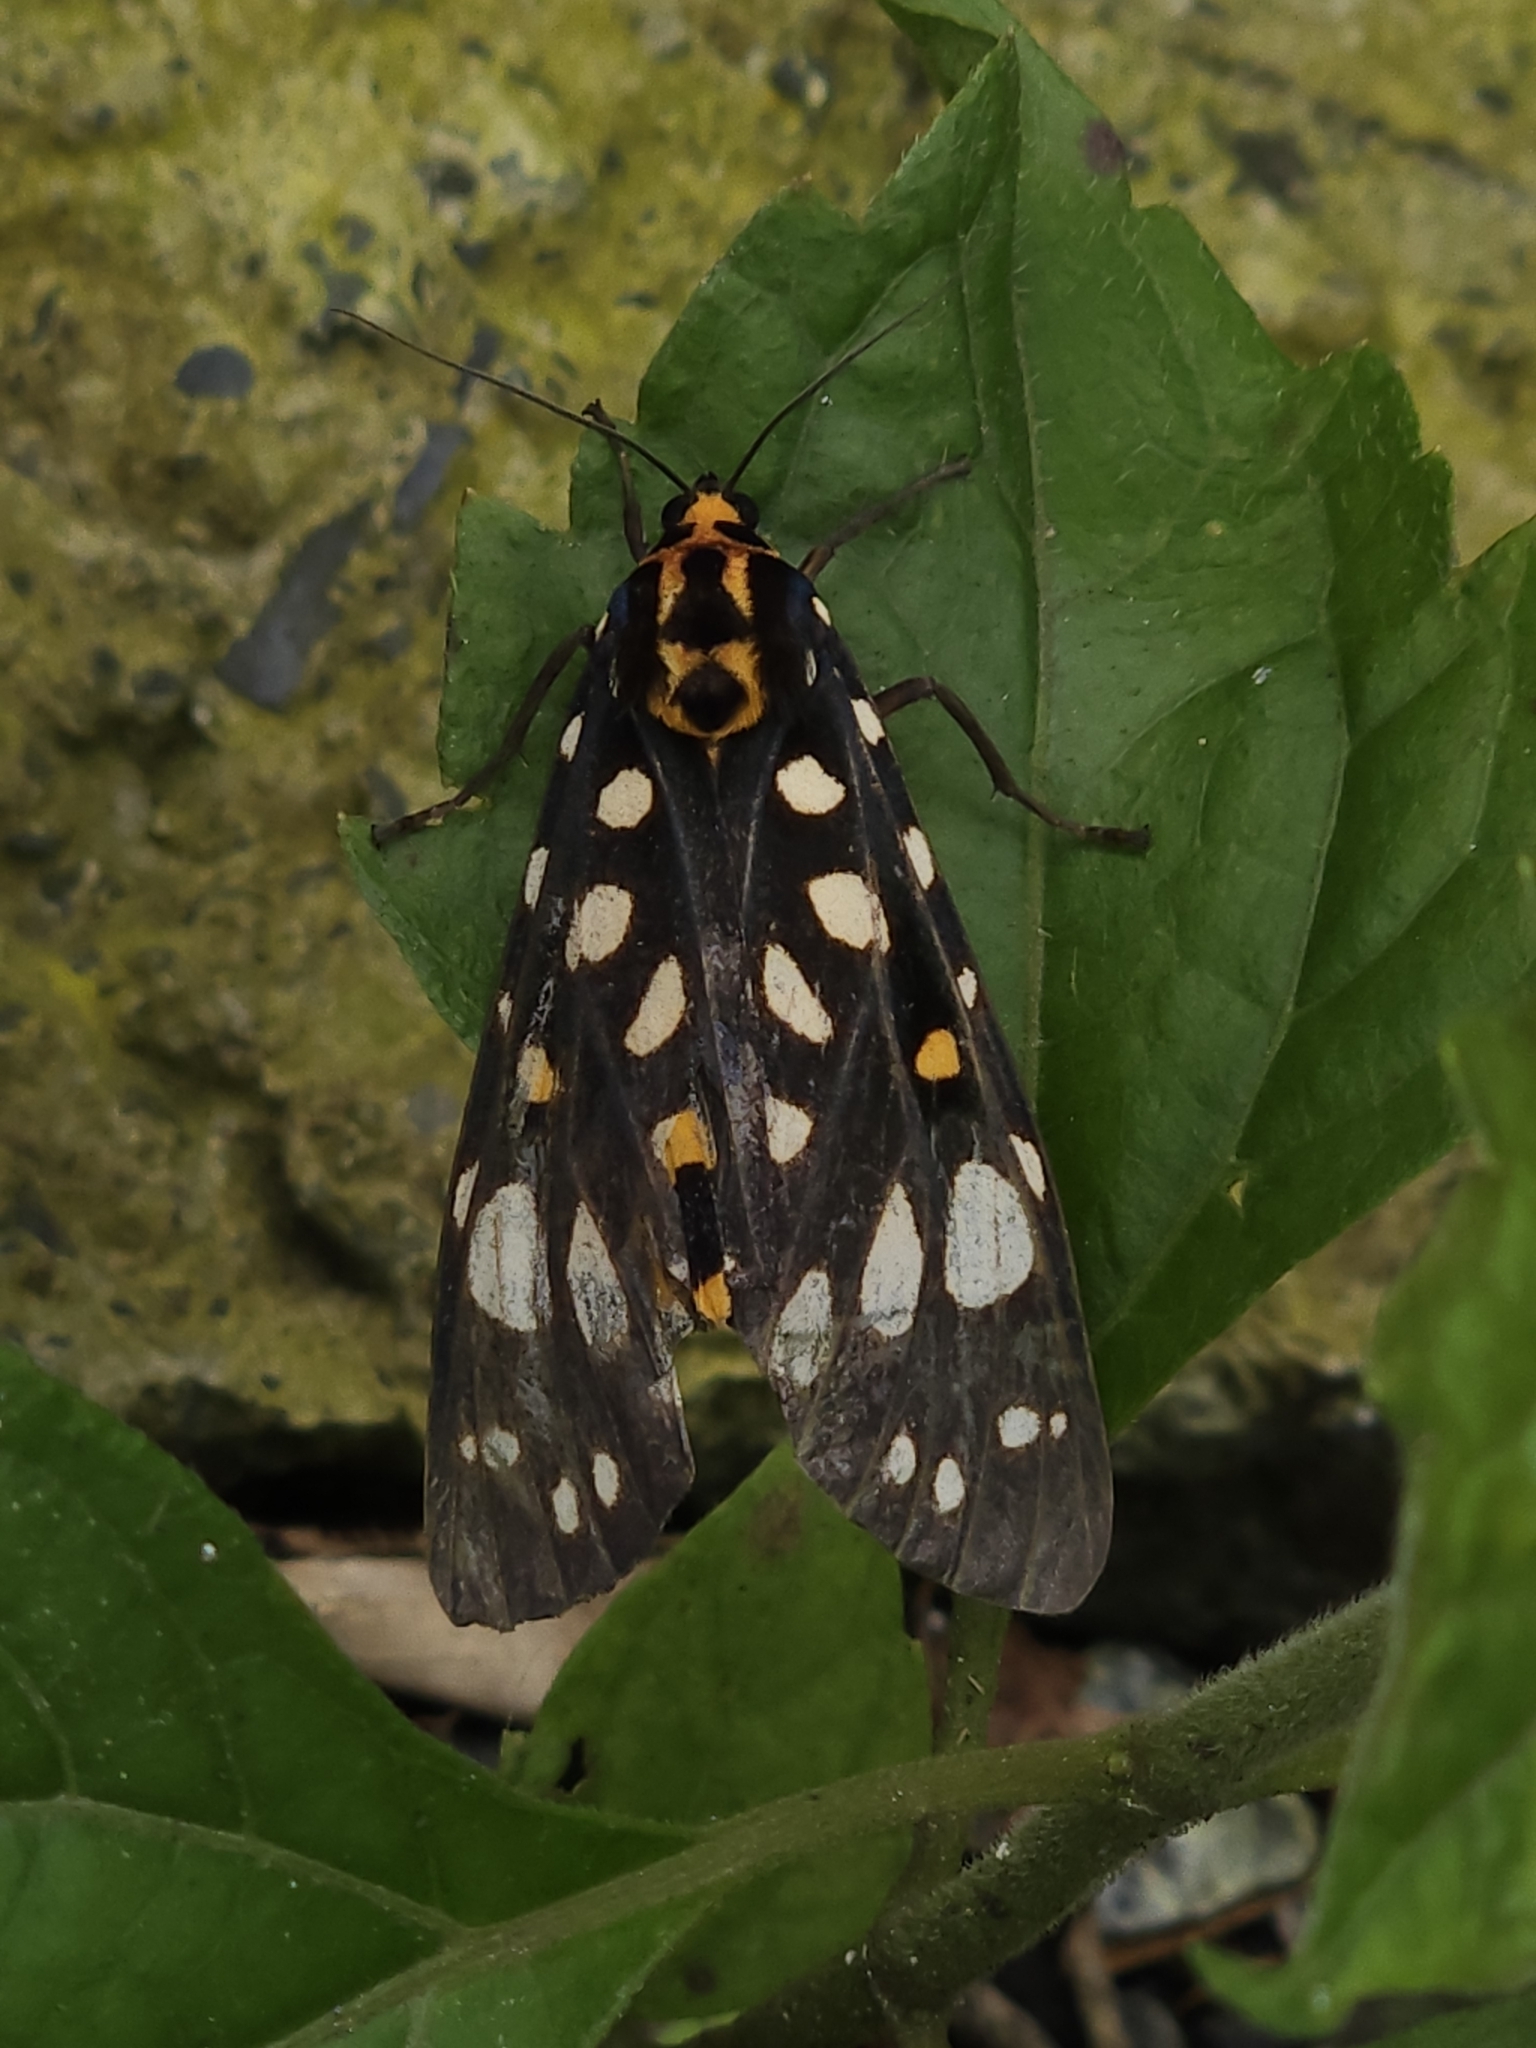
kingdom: Animalia
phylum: Arthropoda
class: Insecta
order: Lepidoptera
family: Erebidae
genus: Aglaomorpha
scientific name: Aglaomorpha histrio
